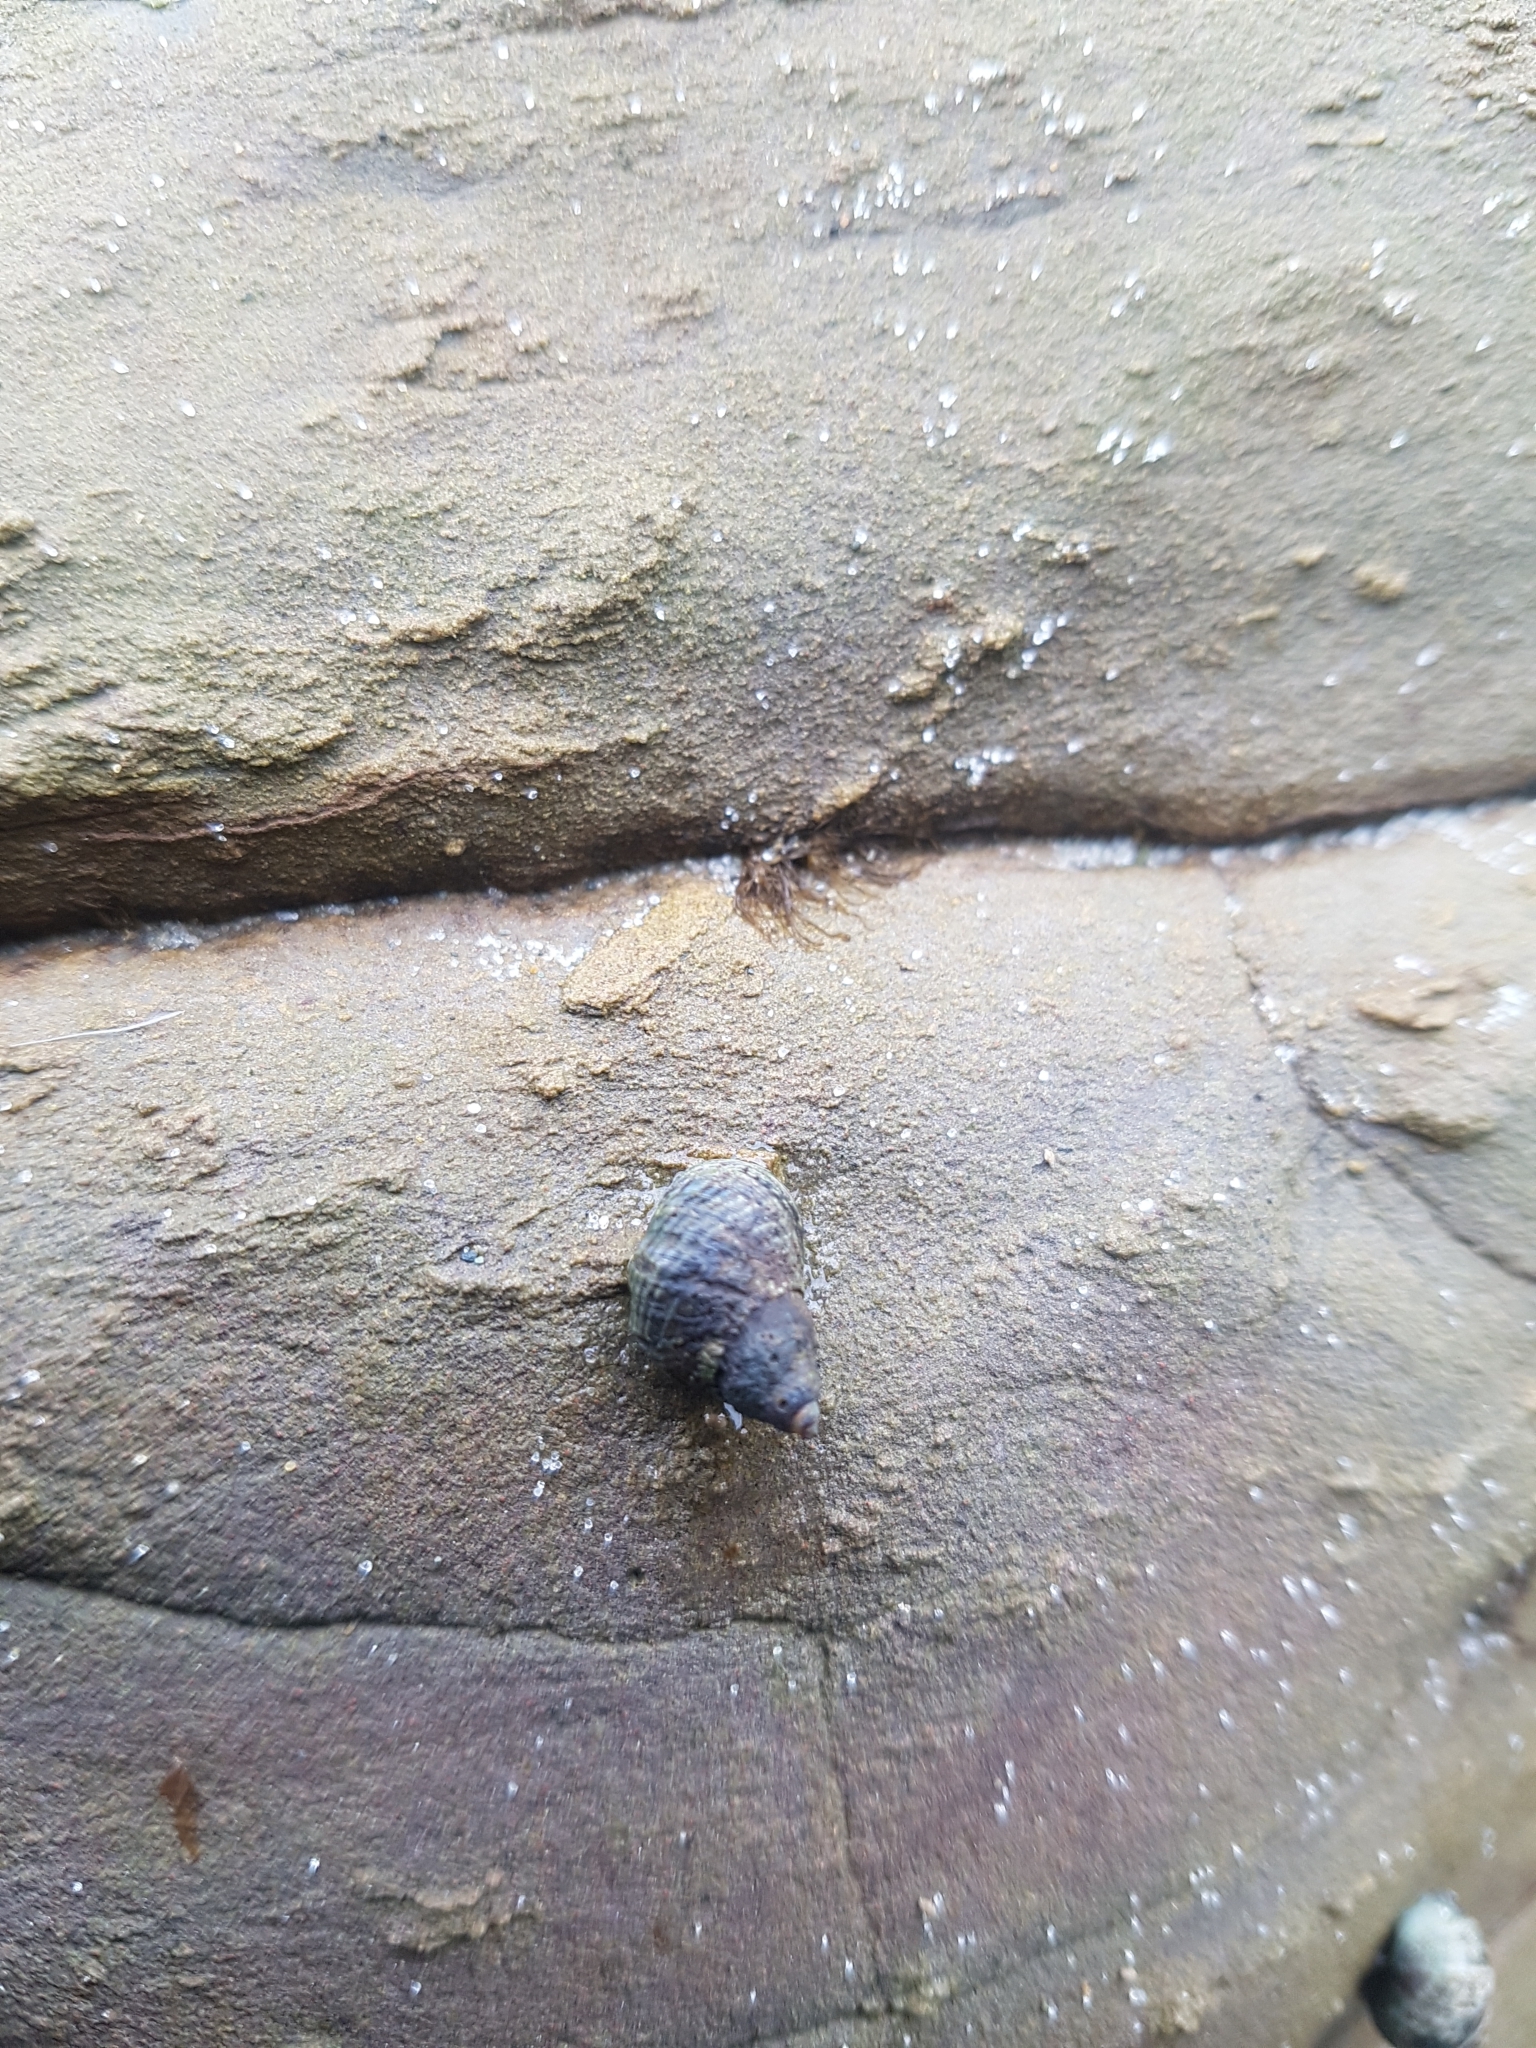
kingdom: Animalia
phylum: Mollusca
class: Gastropoda
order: Littorinimorpha
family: Littorinidae
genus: Austrolittorina
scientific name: Austrolittorina cincta
